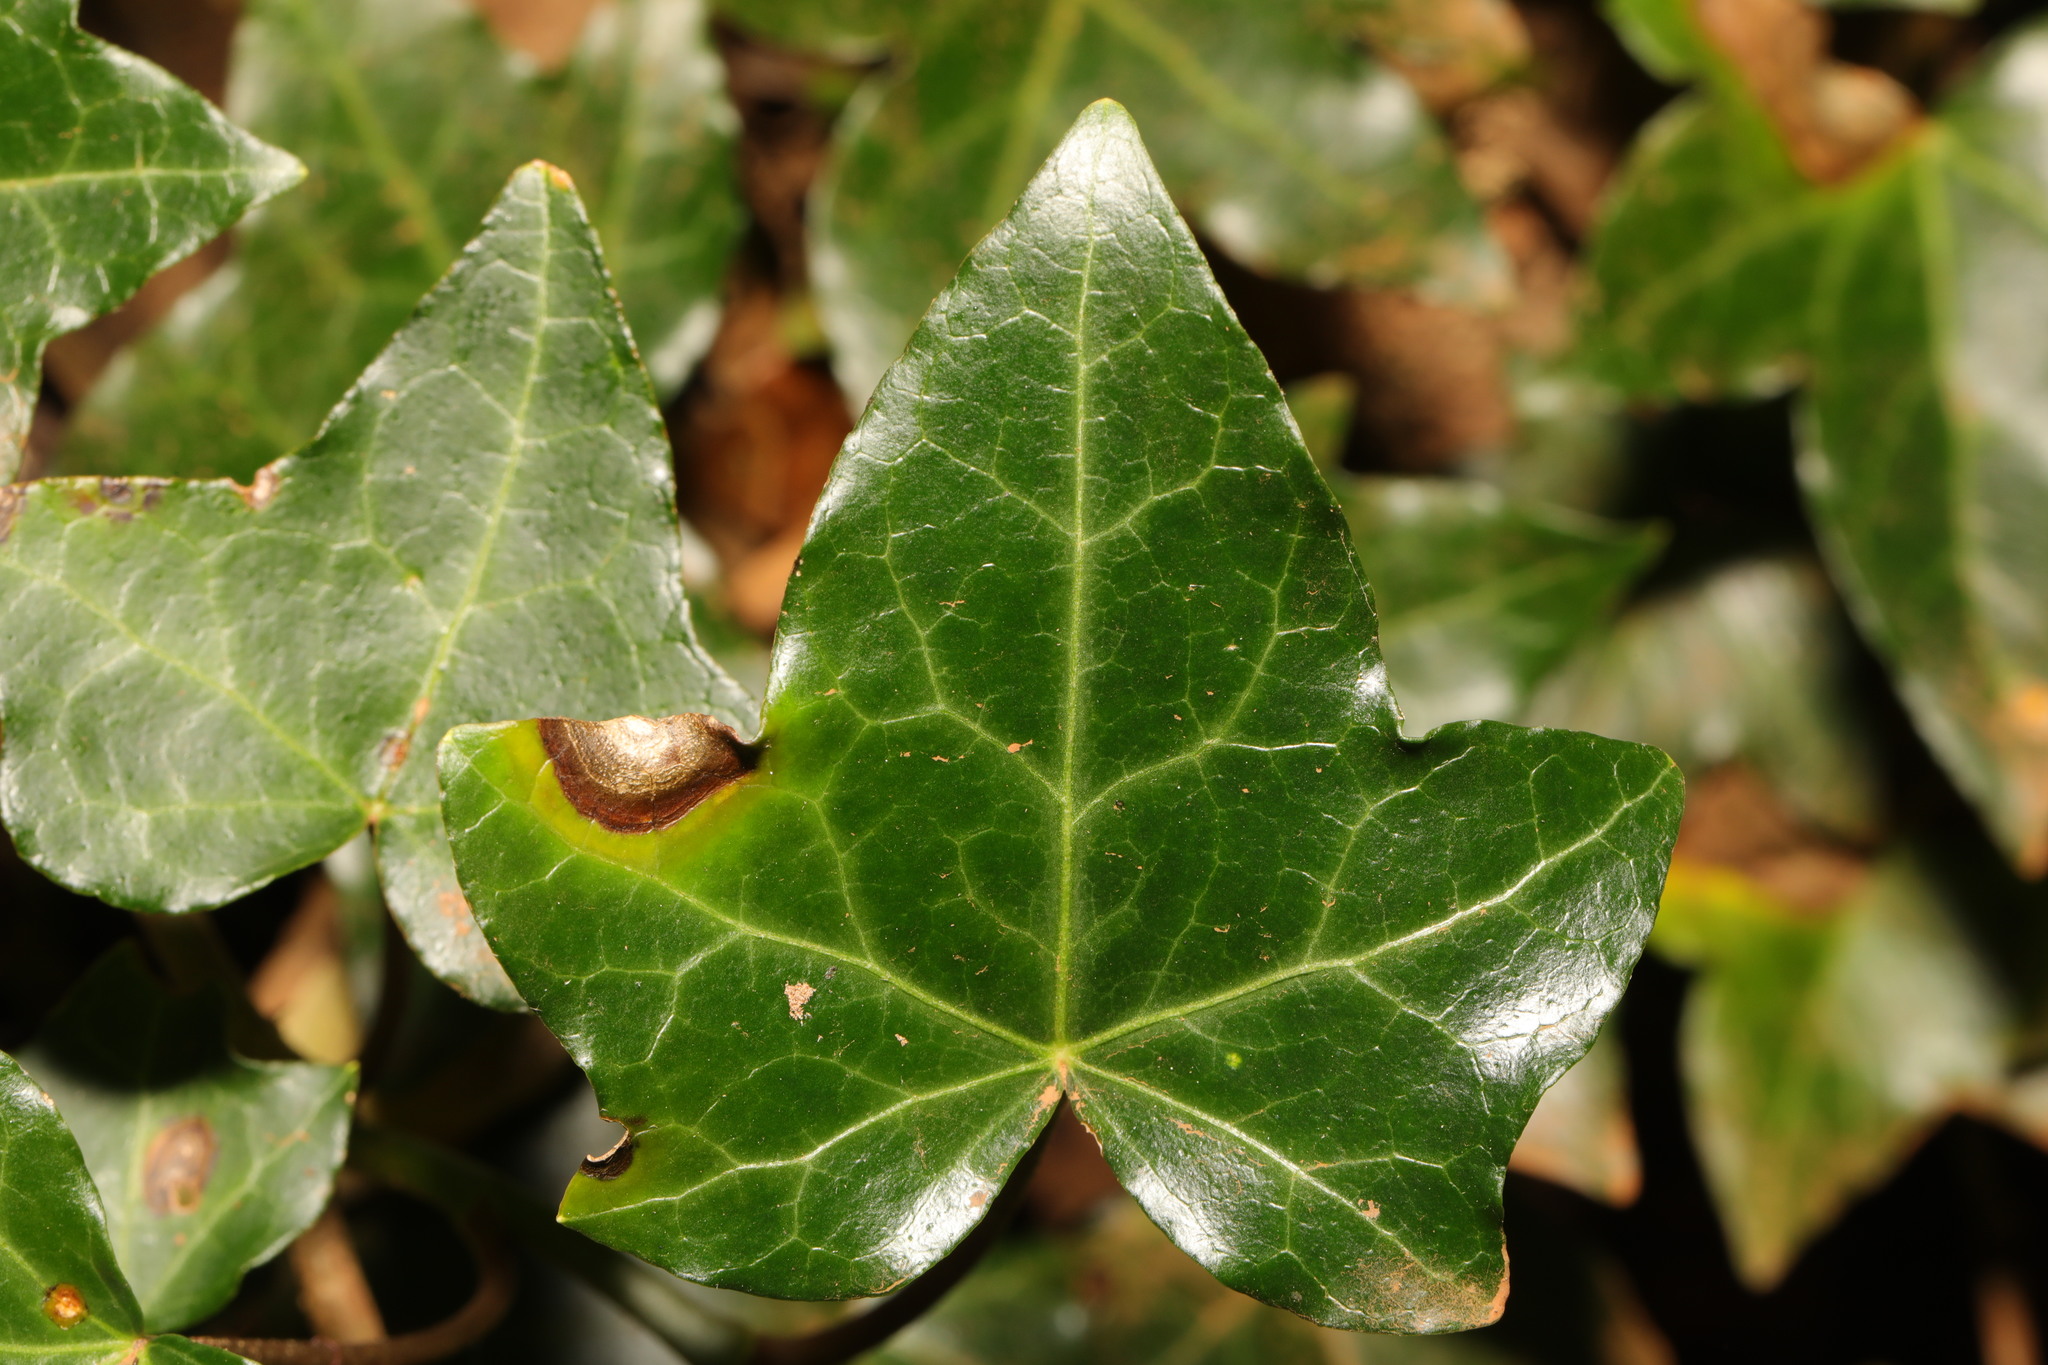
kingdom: Fungi
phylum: Ascomycota
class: Dothideomycetes
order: Pleosporales
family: Didymellaceae
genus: Boeremia
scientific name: Boeremia hedericola
